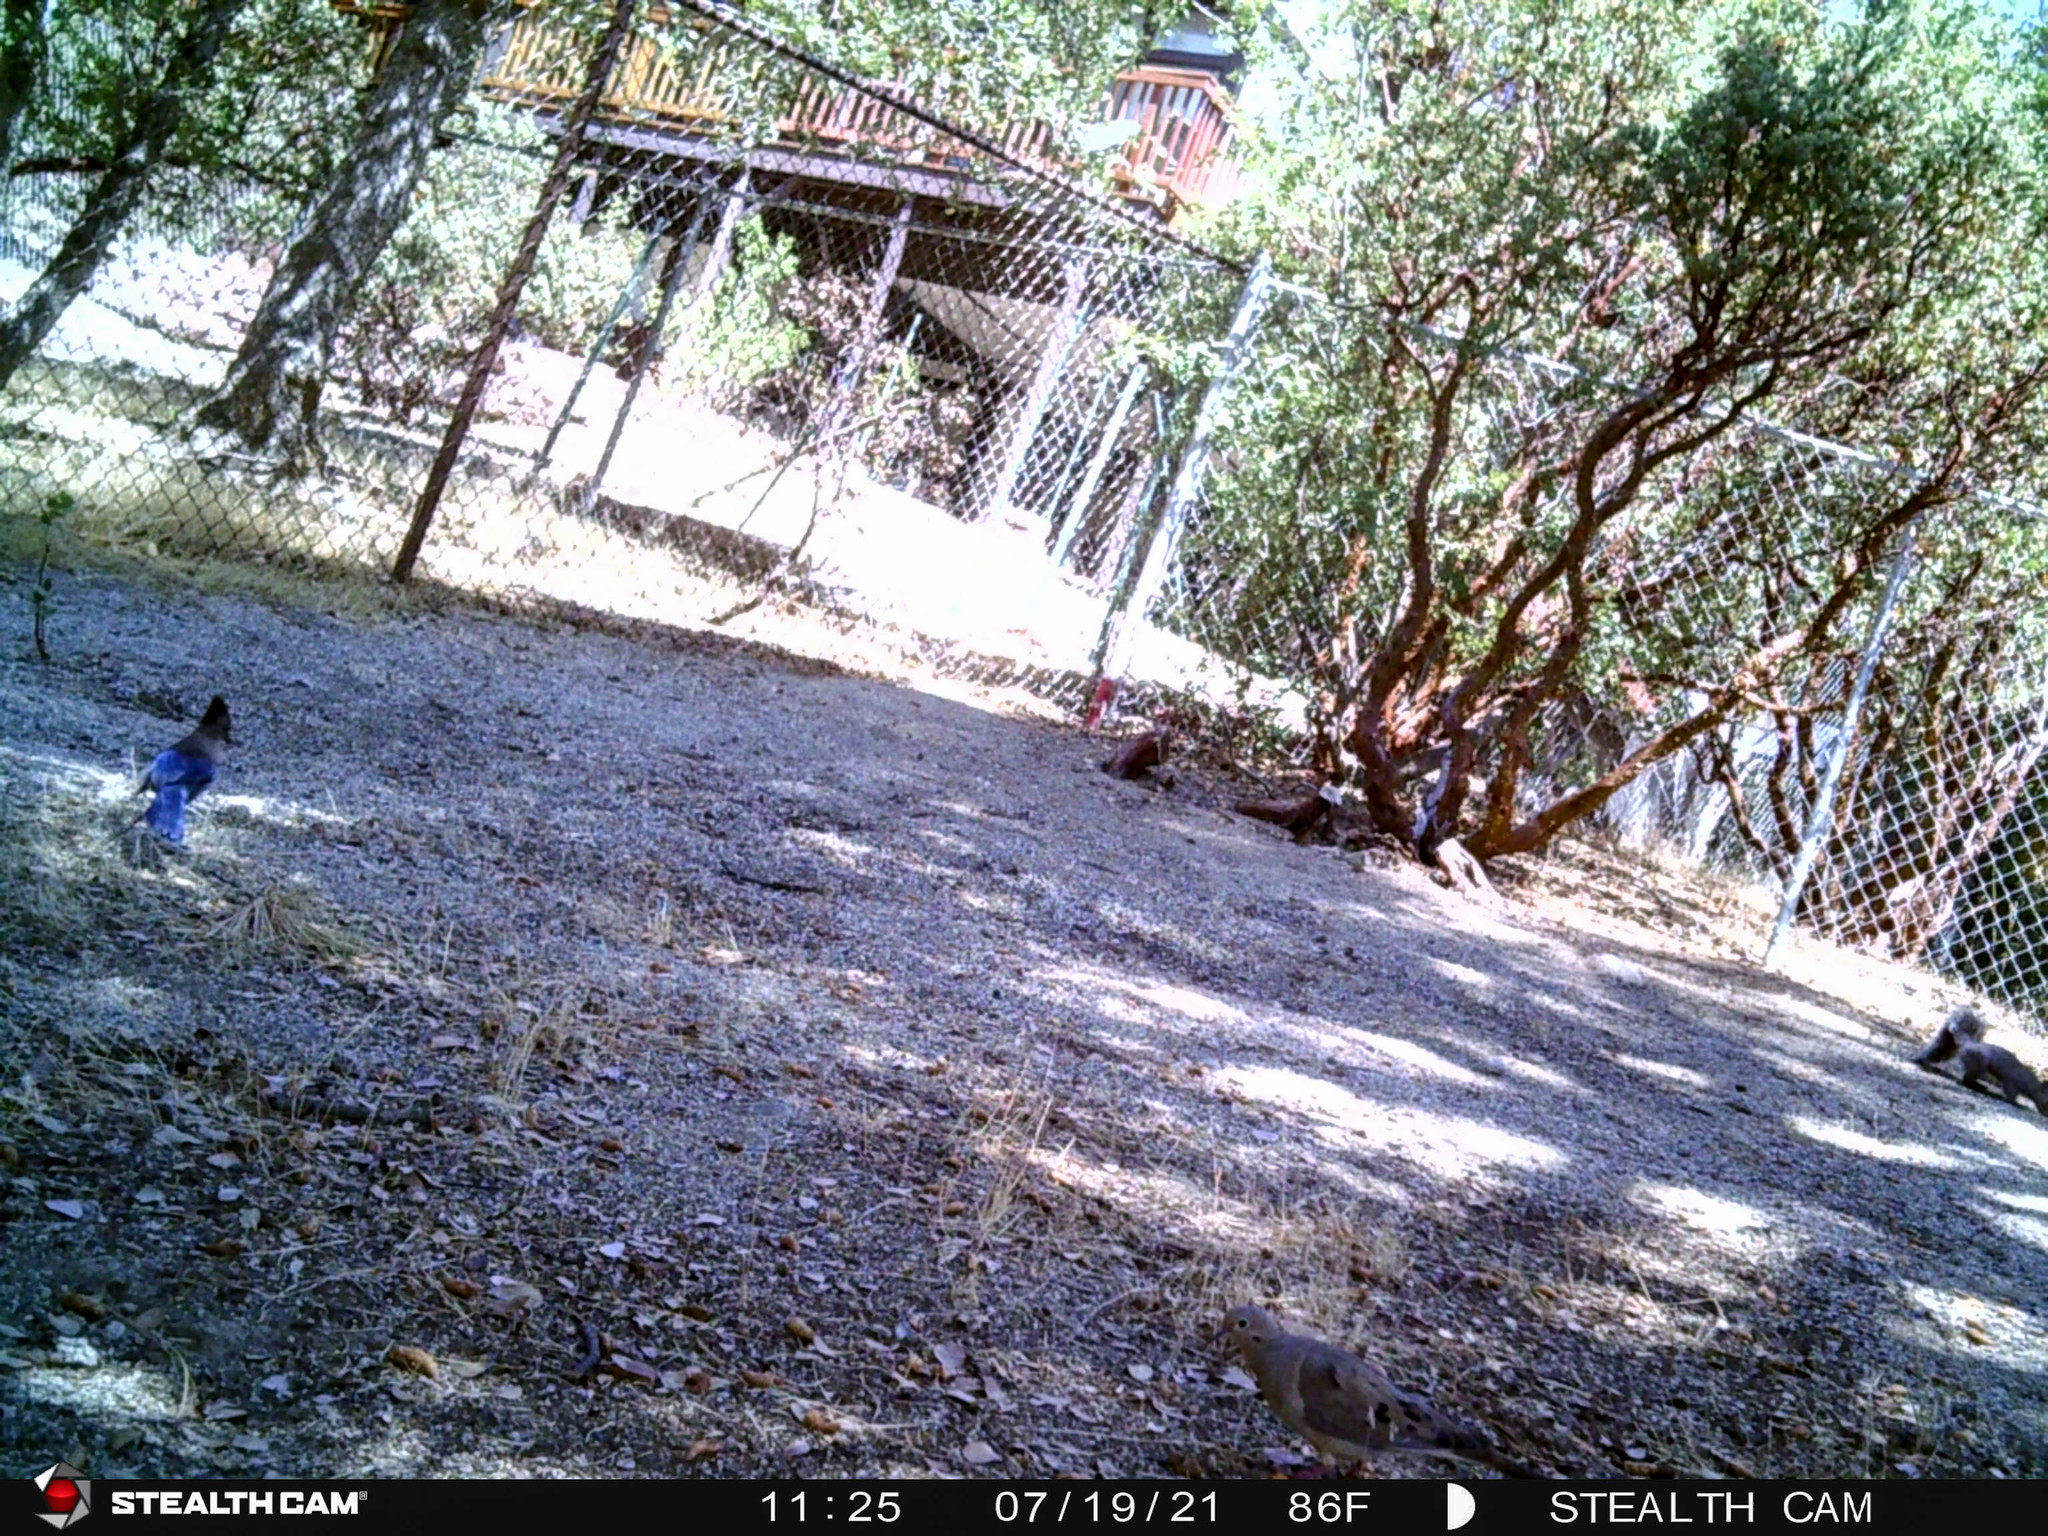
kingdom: Animalia
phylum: Chordata
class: Aves
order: Passeriformes
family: Corvidae
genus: Cyanocitta
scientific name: Cyanocitta stelleri
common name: Steller's jay
